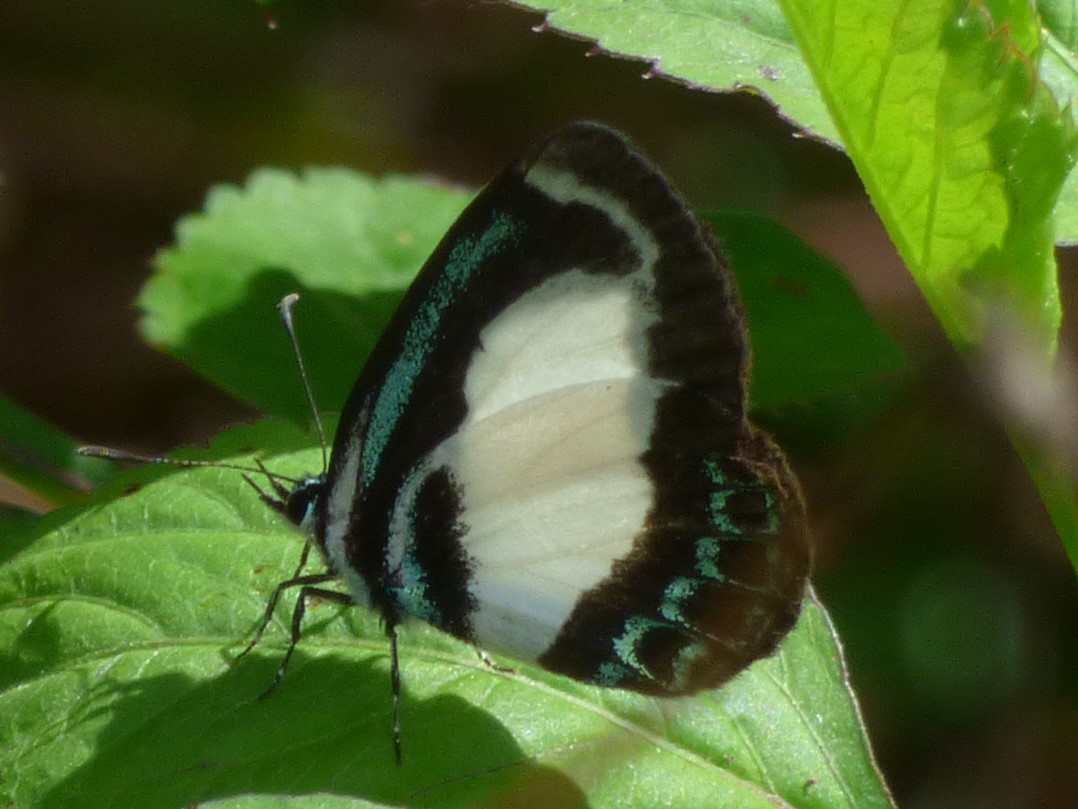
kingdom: Animalia
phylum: Arthropoda
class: Insecta
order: Lepidoptera
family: Lycaenidae
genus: Psychonotis
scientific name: Psychonotis caelius
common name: Small green banded blue
